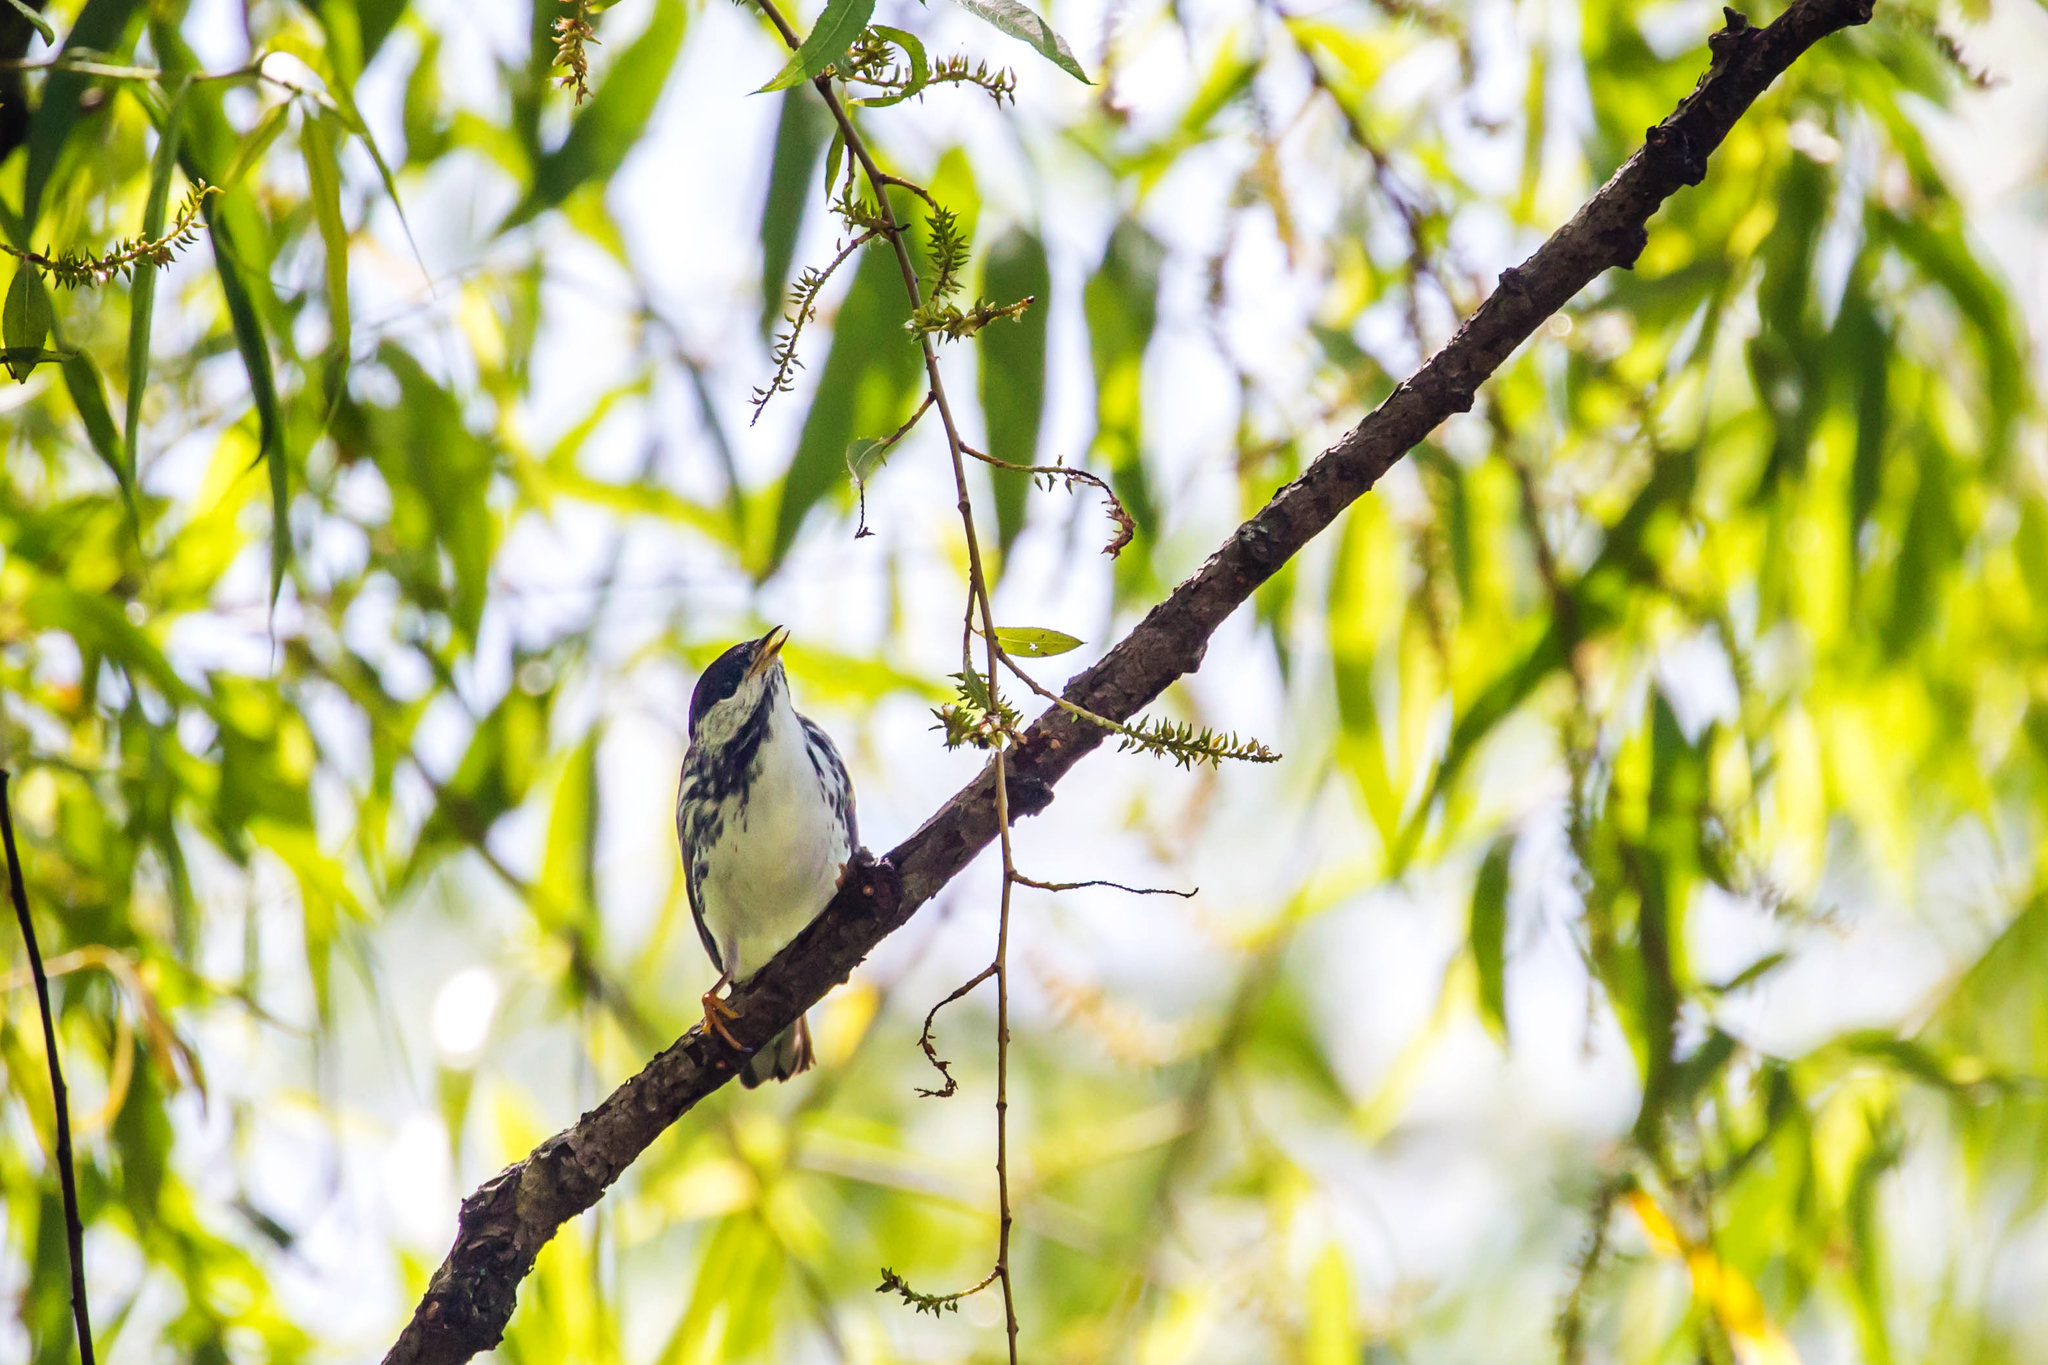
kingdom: Animalia
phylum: Chordata
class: Aves
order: Passeriformes
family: Parulidae
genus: Setophaga
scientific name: Setophaga striata
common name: Blackpoll warbler
